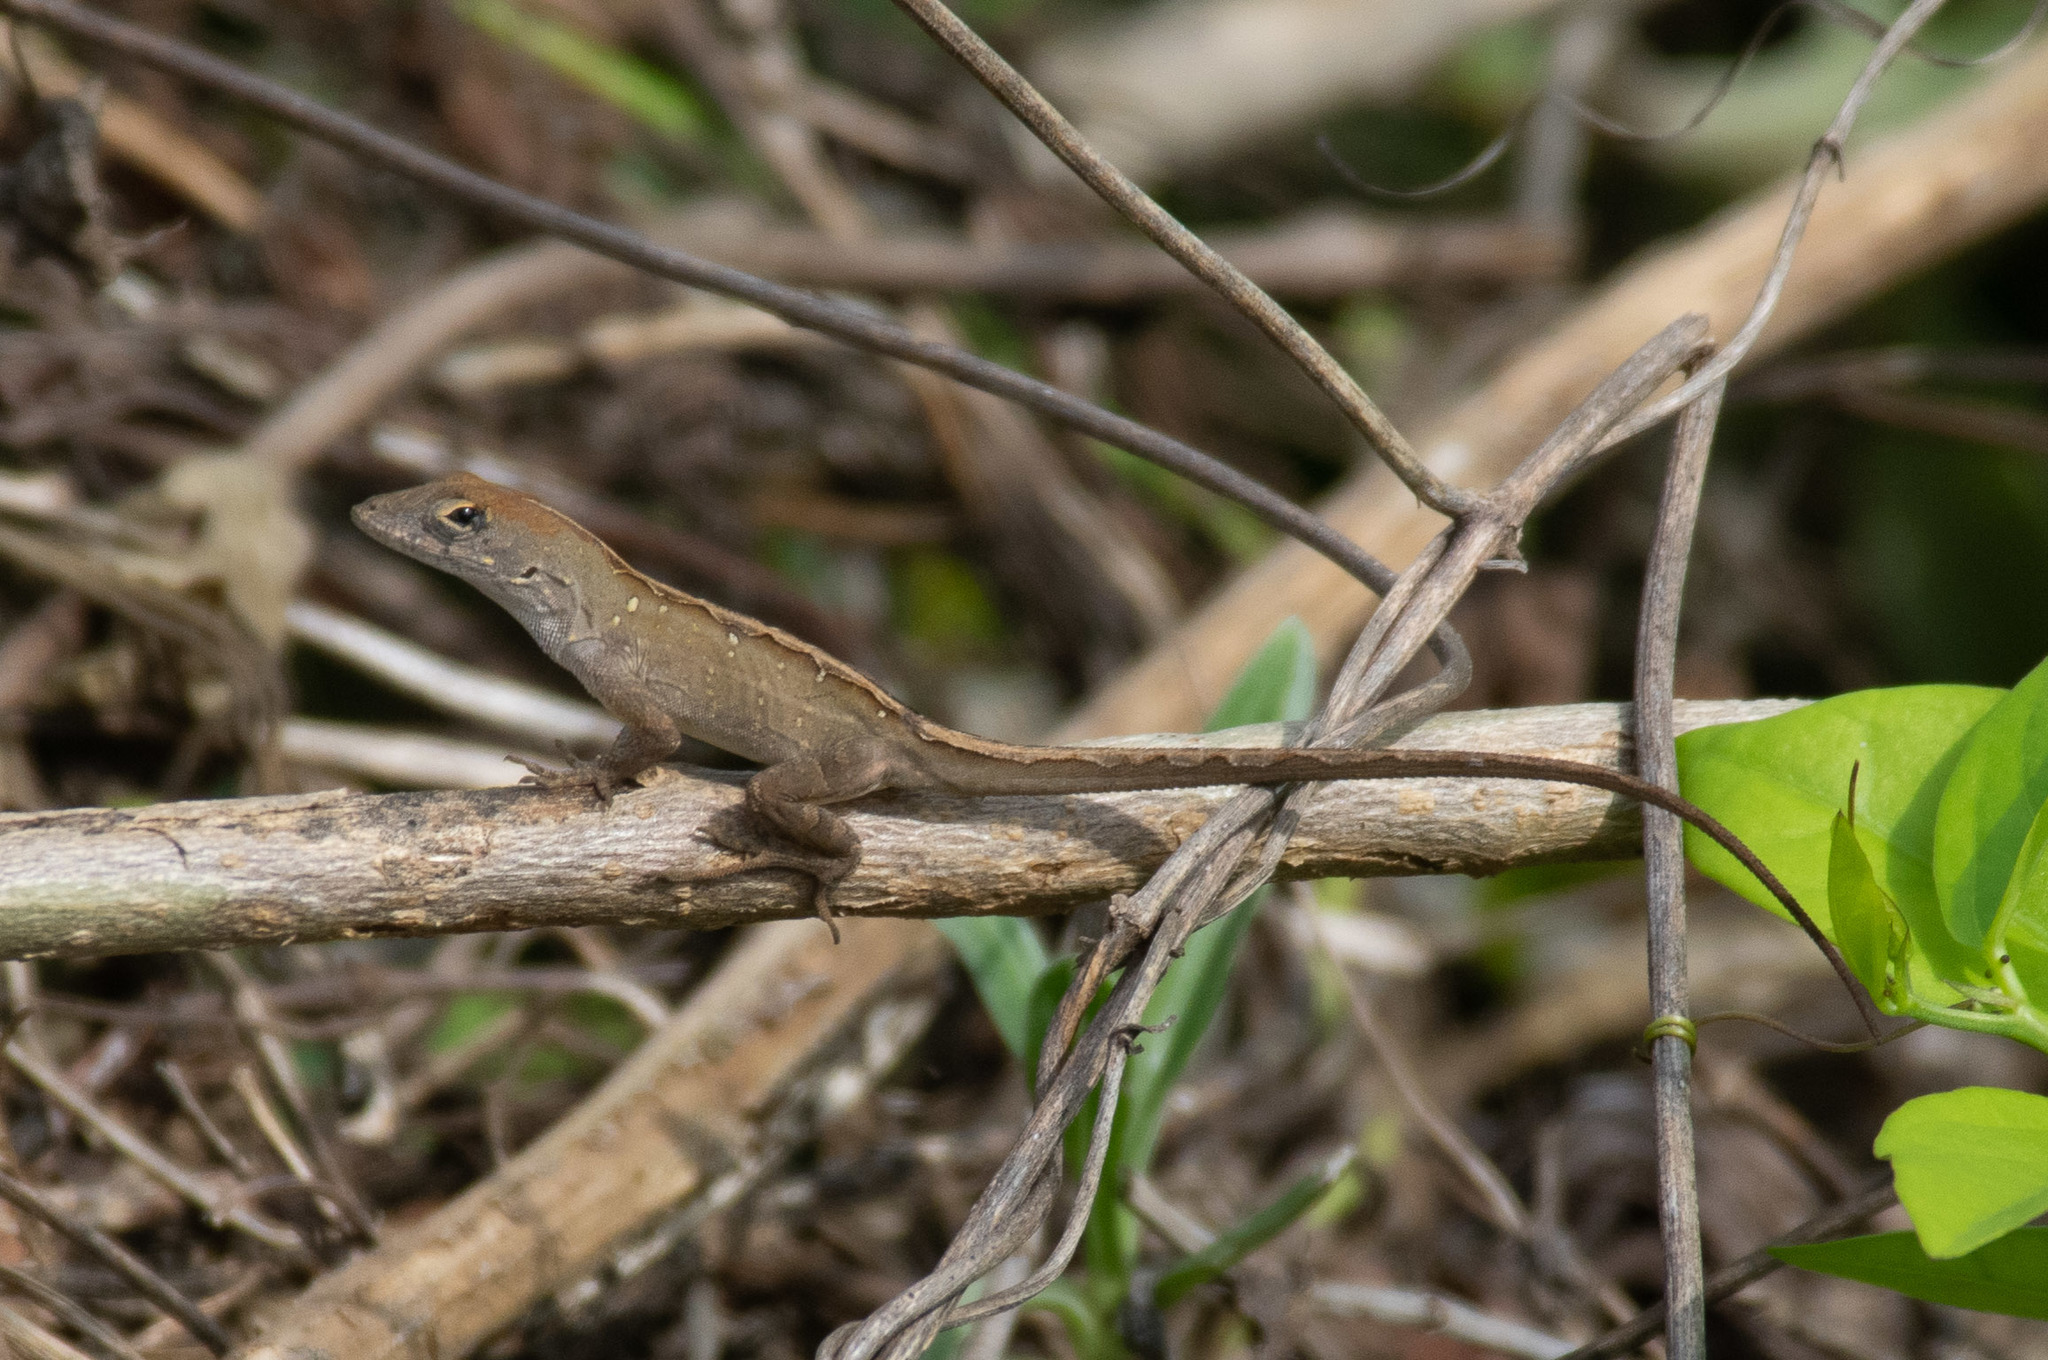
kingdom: Animalia
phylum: Chordata
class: Squamata
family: Dactyloidae
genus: Anolis
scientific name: Anolis sagrei
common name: Brown anole
